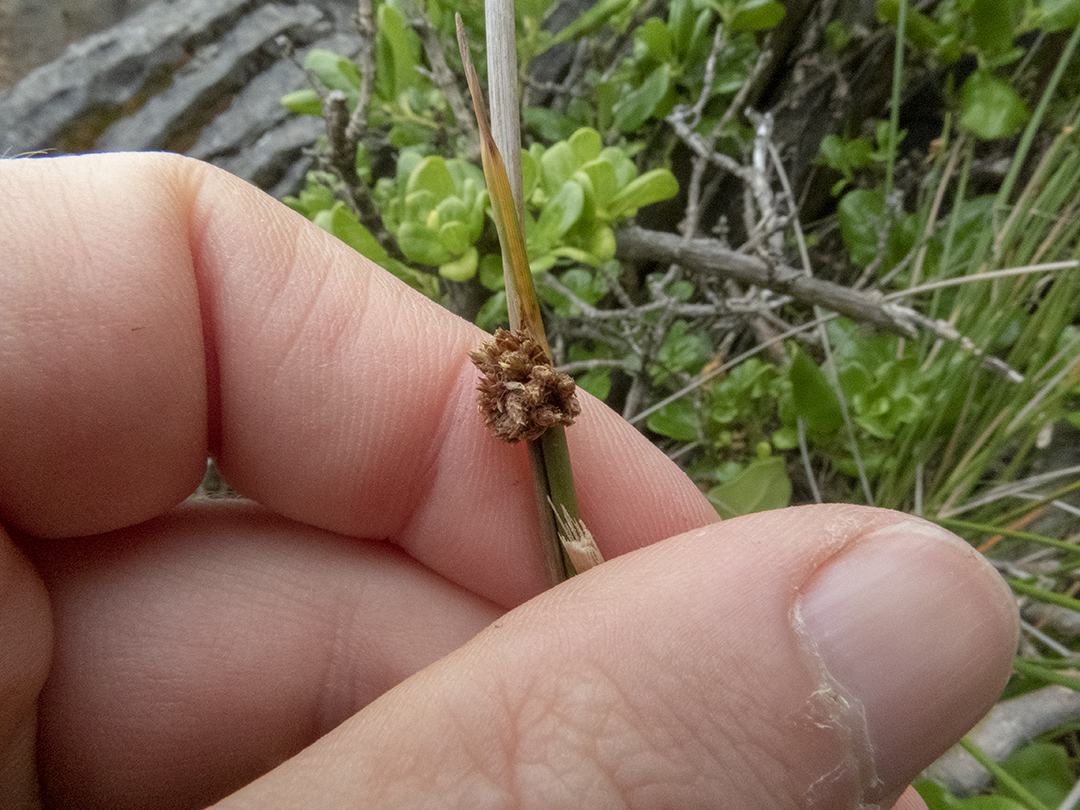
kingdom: Plantae
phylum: Tracheophyta
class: Liliopsida
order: Poales
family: Cyperaceae
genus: Ficinia
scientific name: Ficinia nodosa
